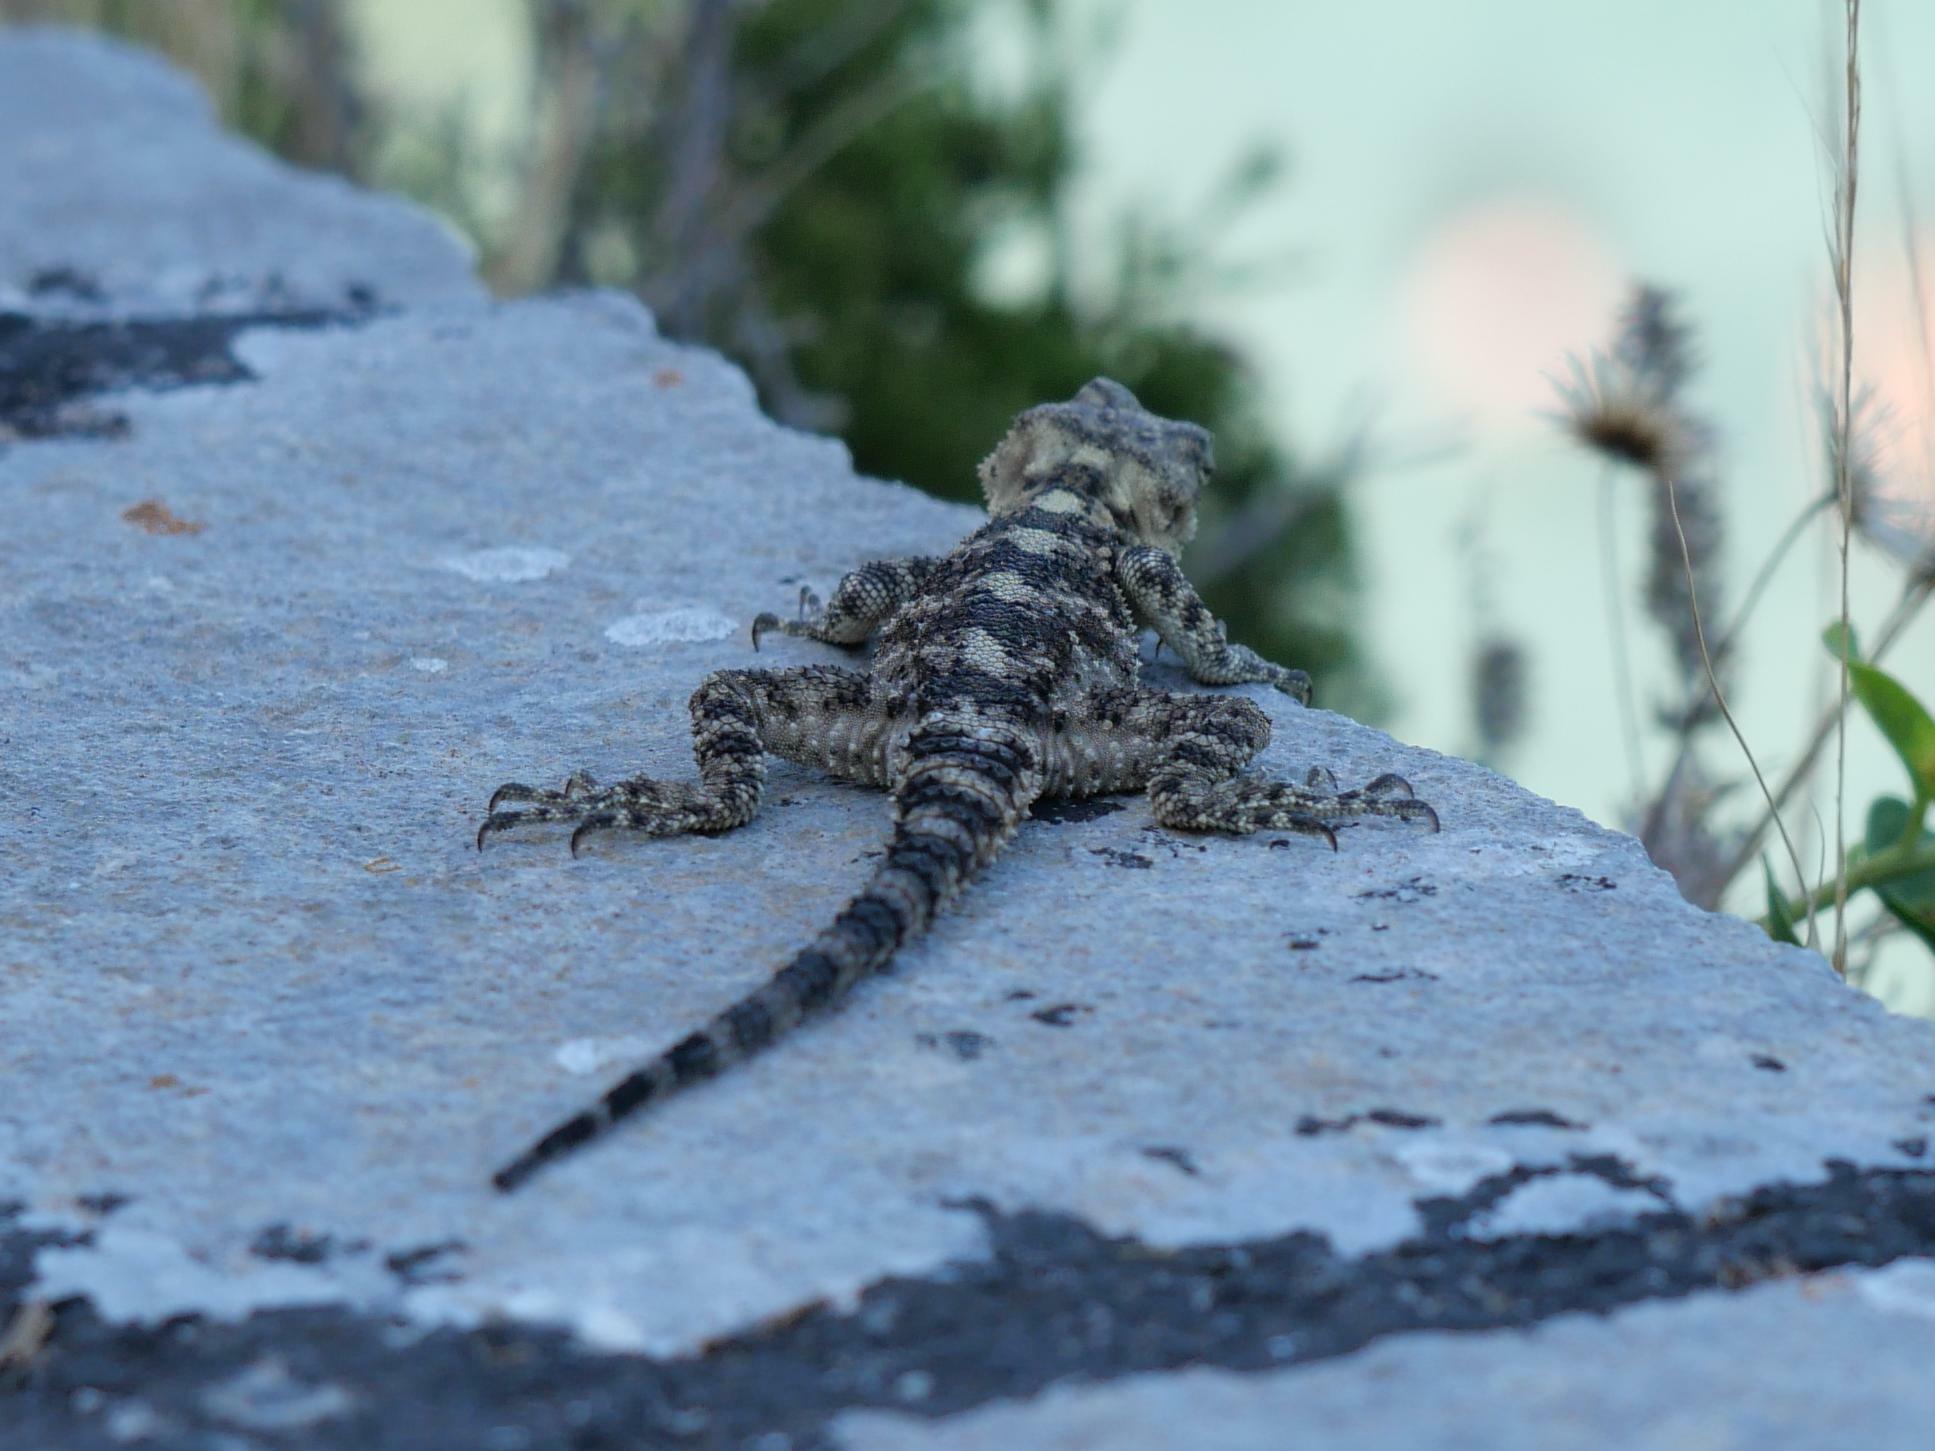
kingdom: Animalia
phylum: Chordata
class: Squamata
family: Agamidae
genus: Stellagama
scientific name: Stellagama stellio
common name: Starred agama
